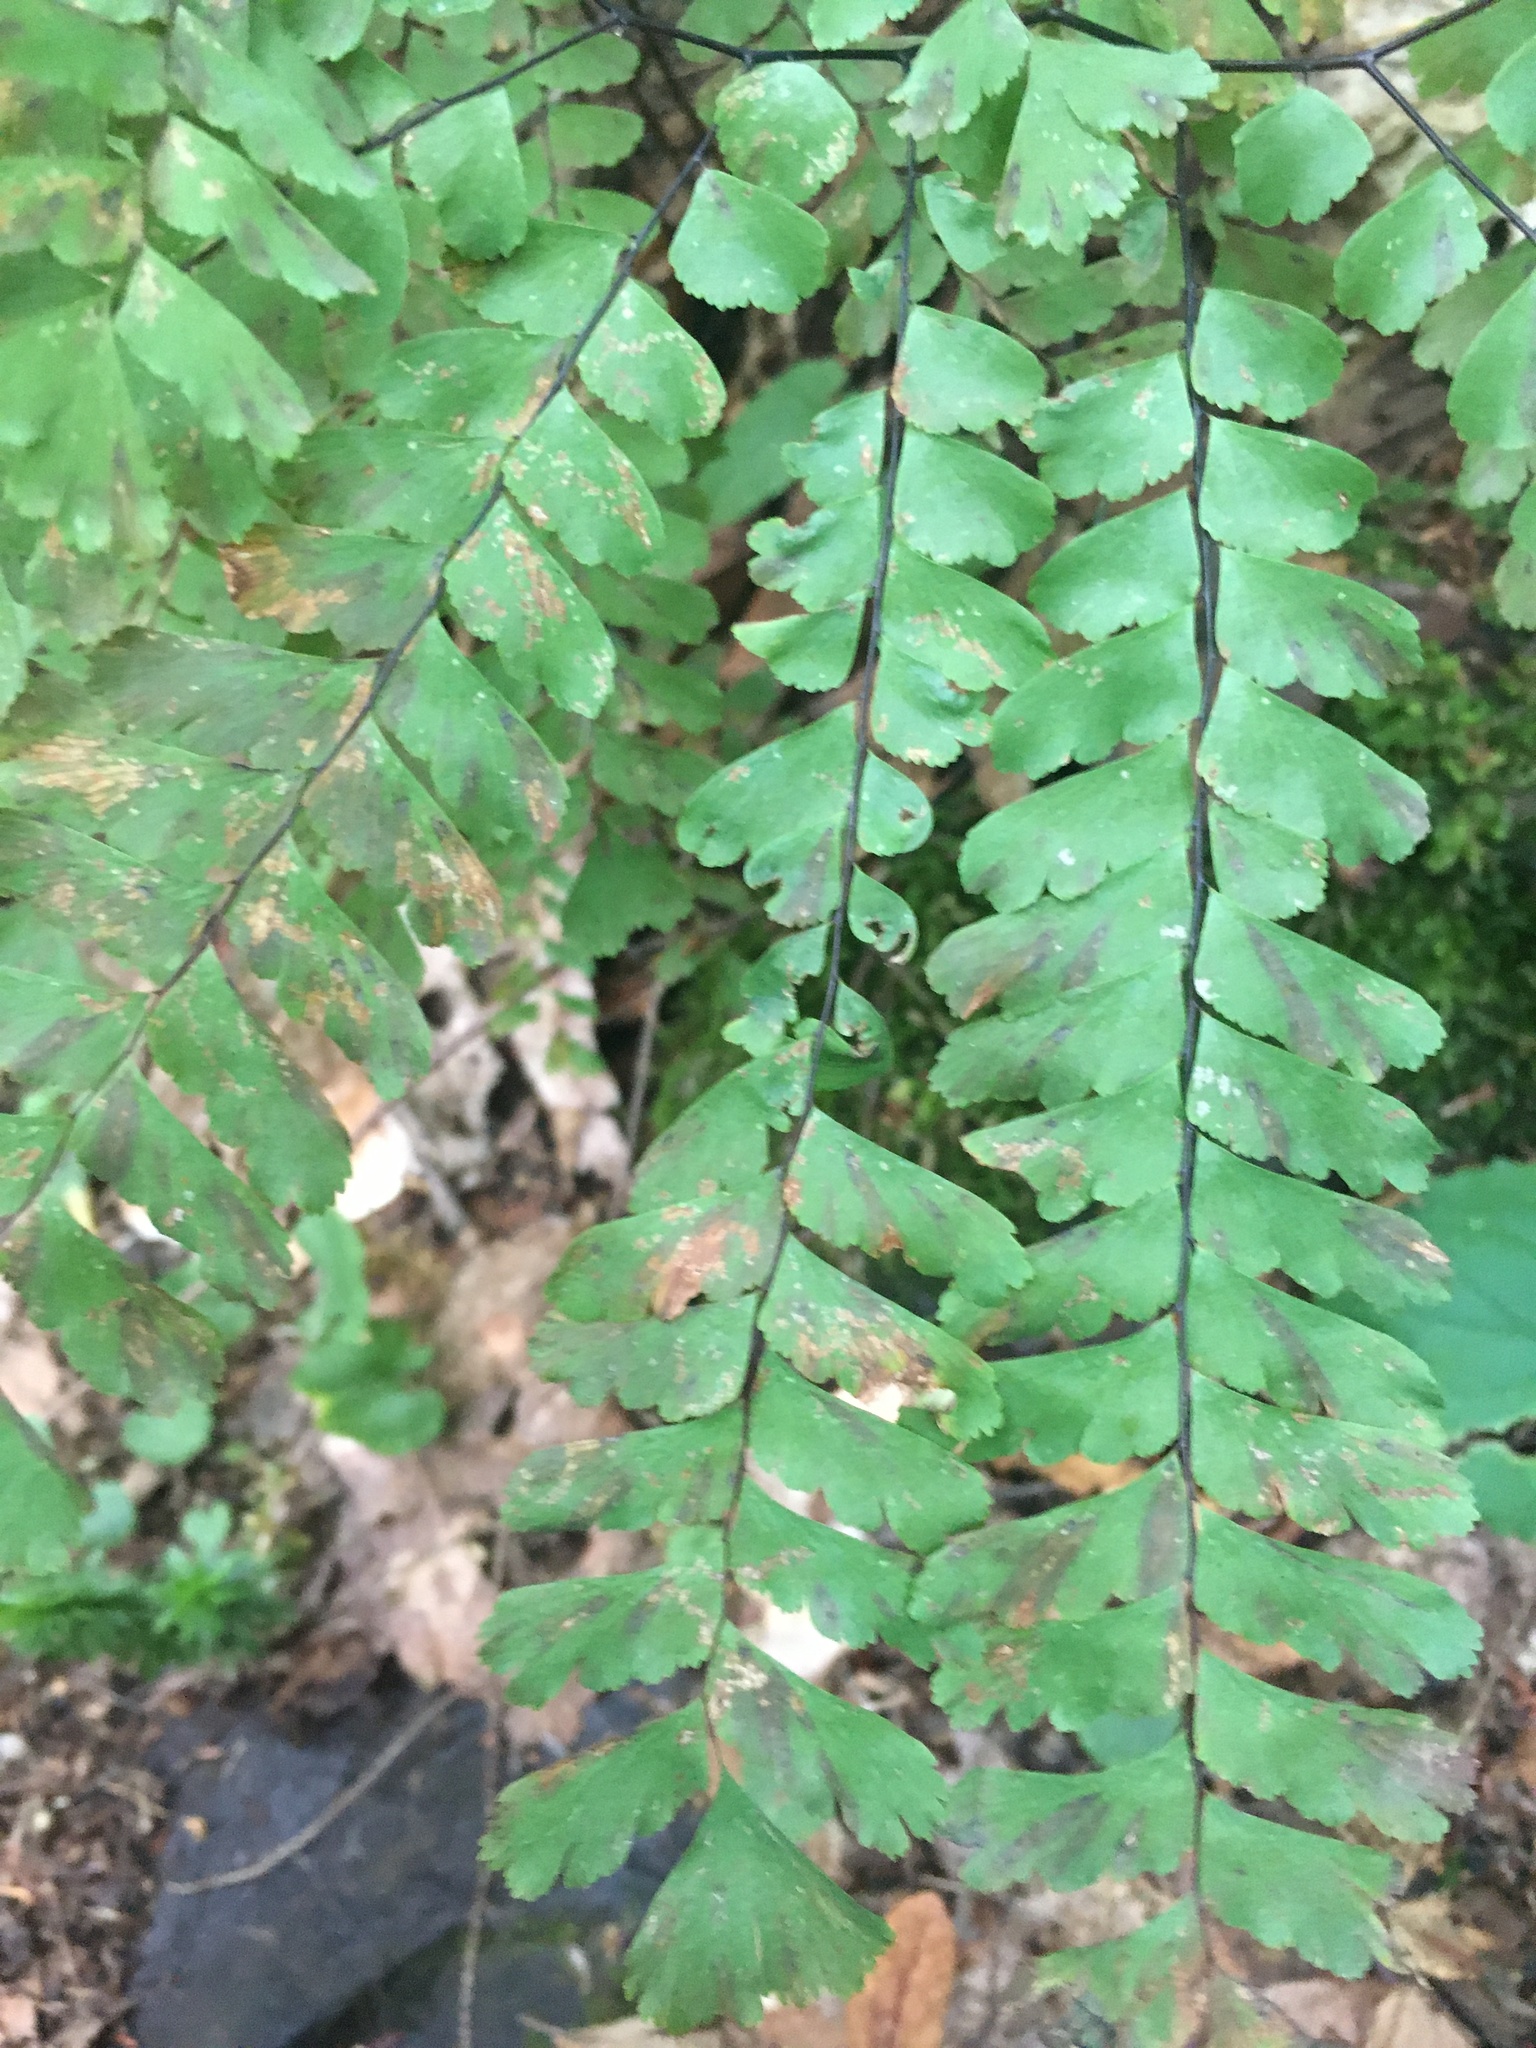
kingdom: Plantae
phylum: Tracheophyta
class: Polypodiopsida
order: Polypodiales
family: Pteridaceae
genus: Adiantum
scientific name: Adiantum pedatum
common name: Five-finger fern
